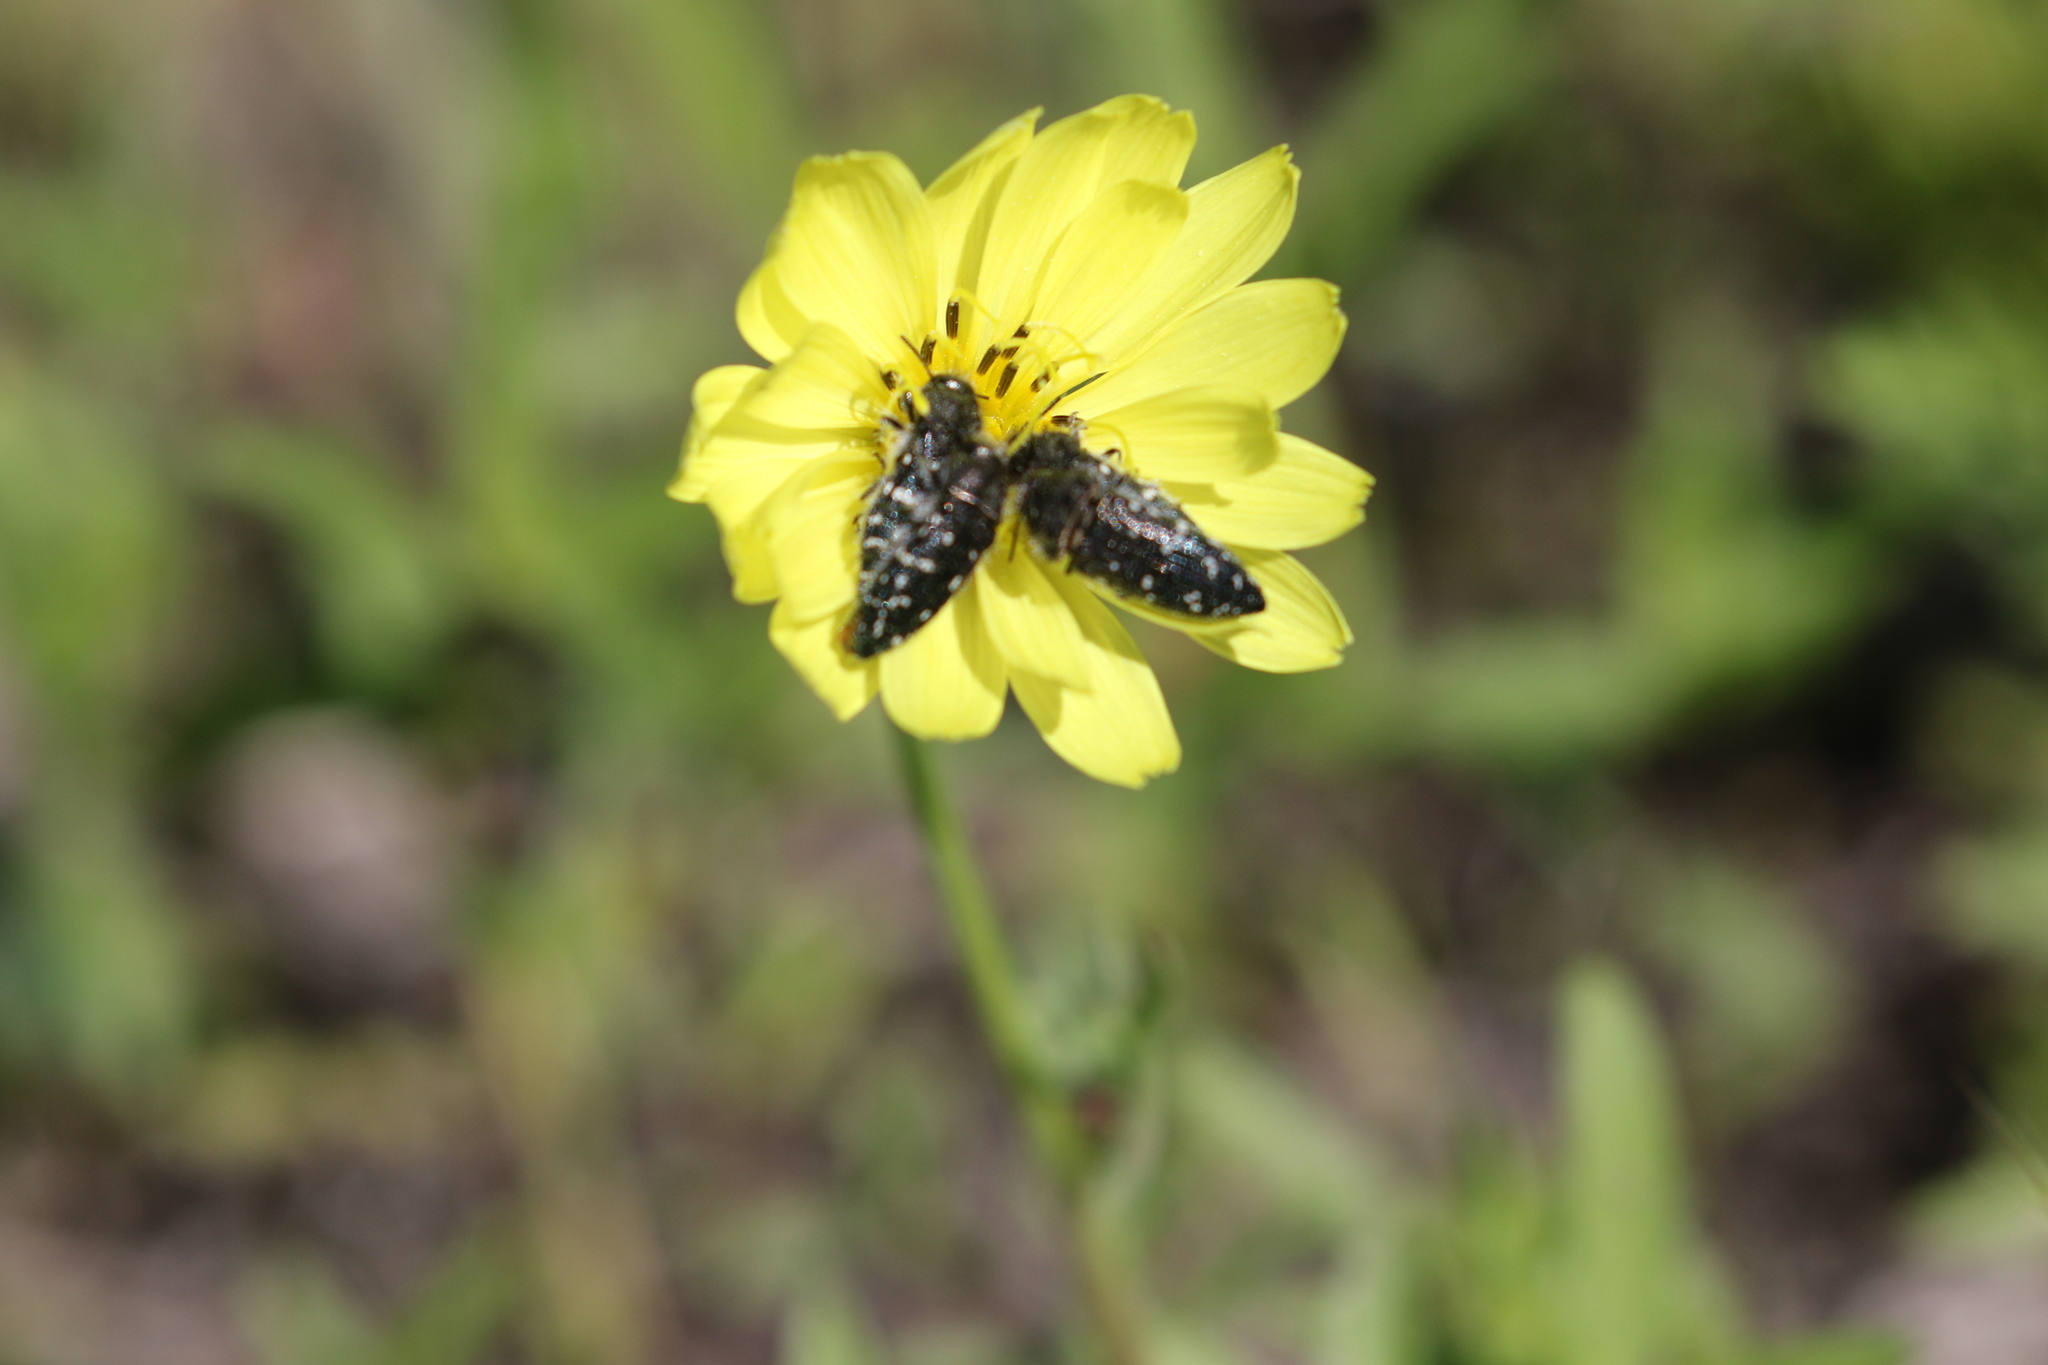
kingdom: Animalia
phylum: Arthropoda
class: Insecta
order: Coleoptera
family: Buprestidae
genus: Acmaeodera
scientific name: Acmaeodera ornatoides
